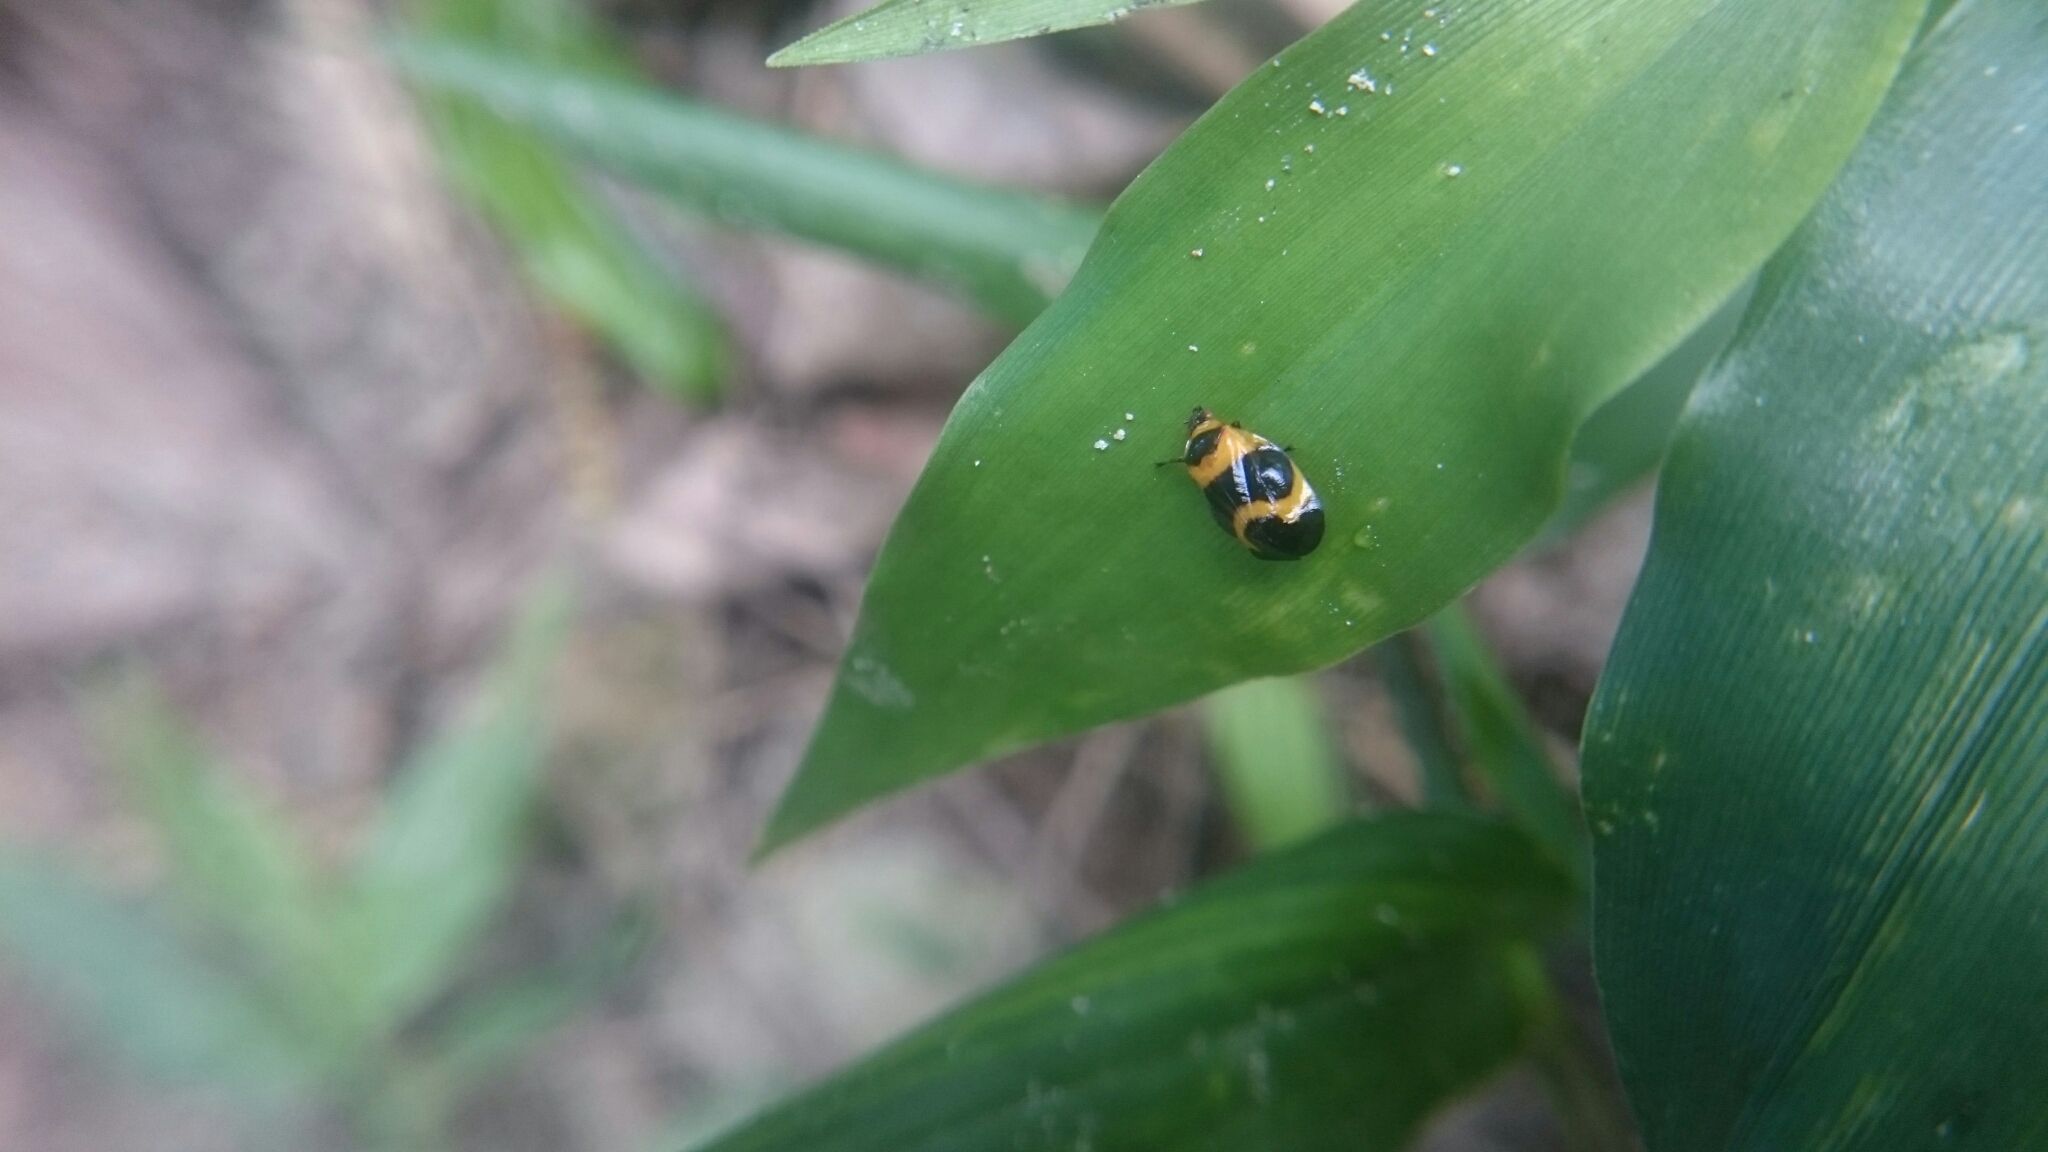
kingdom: Animalia
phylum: Arthropoda
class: Insecta
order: Hemiptera
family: Cercopidae
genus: Tropidorhinella
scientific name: Tropidorhinella onorei
